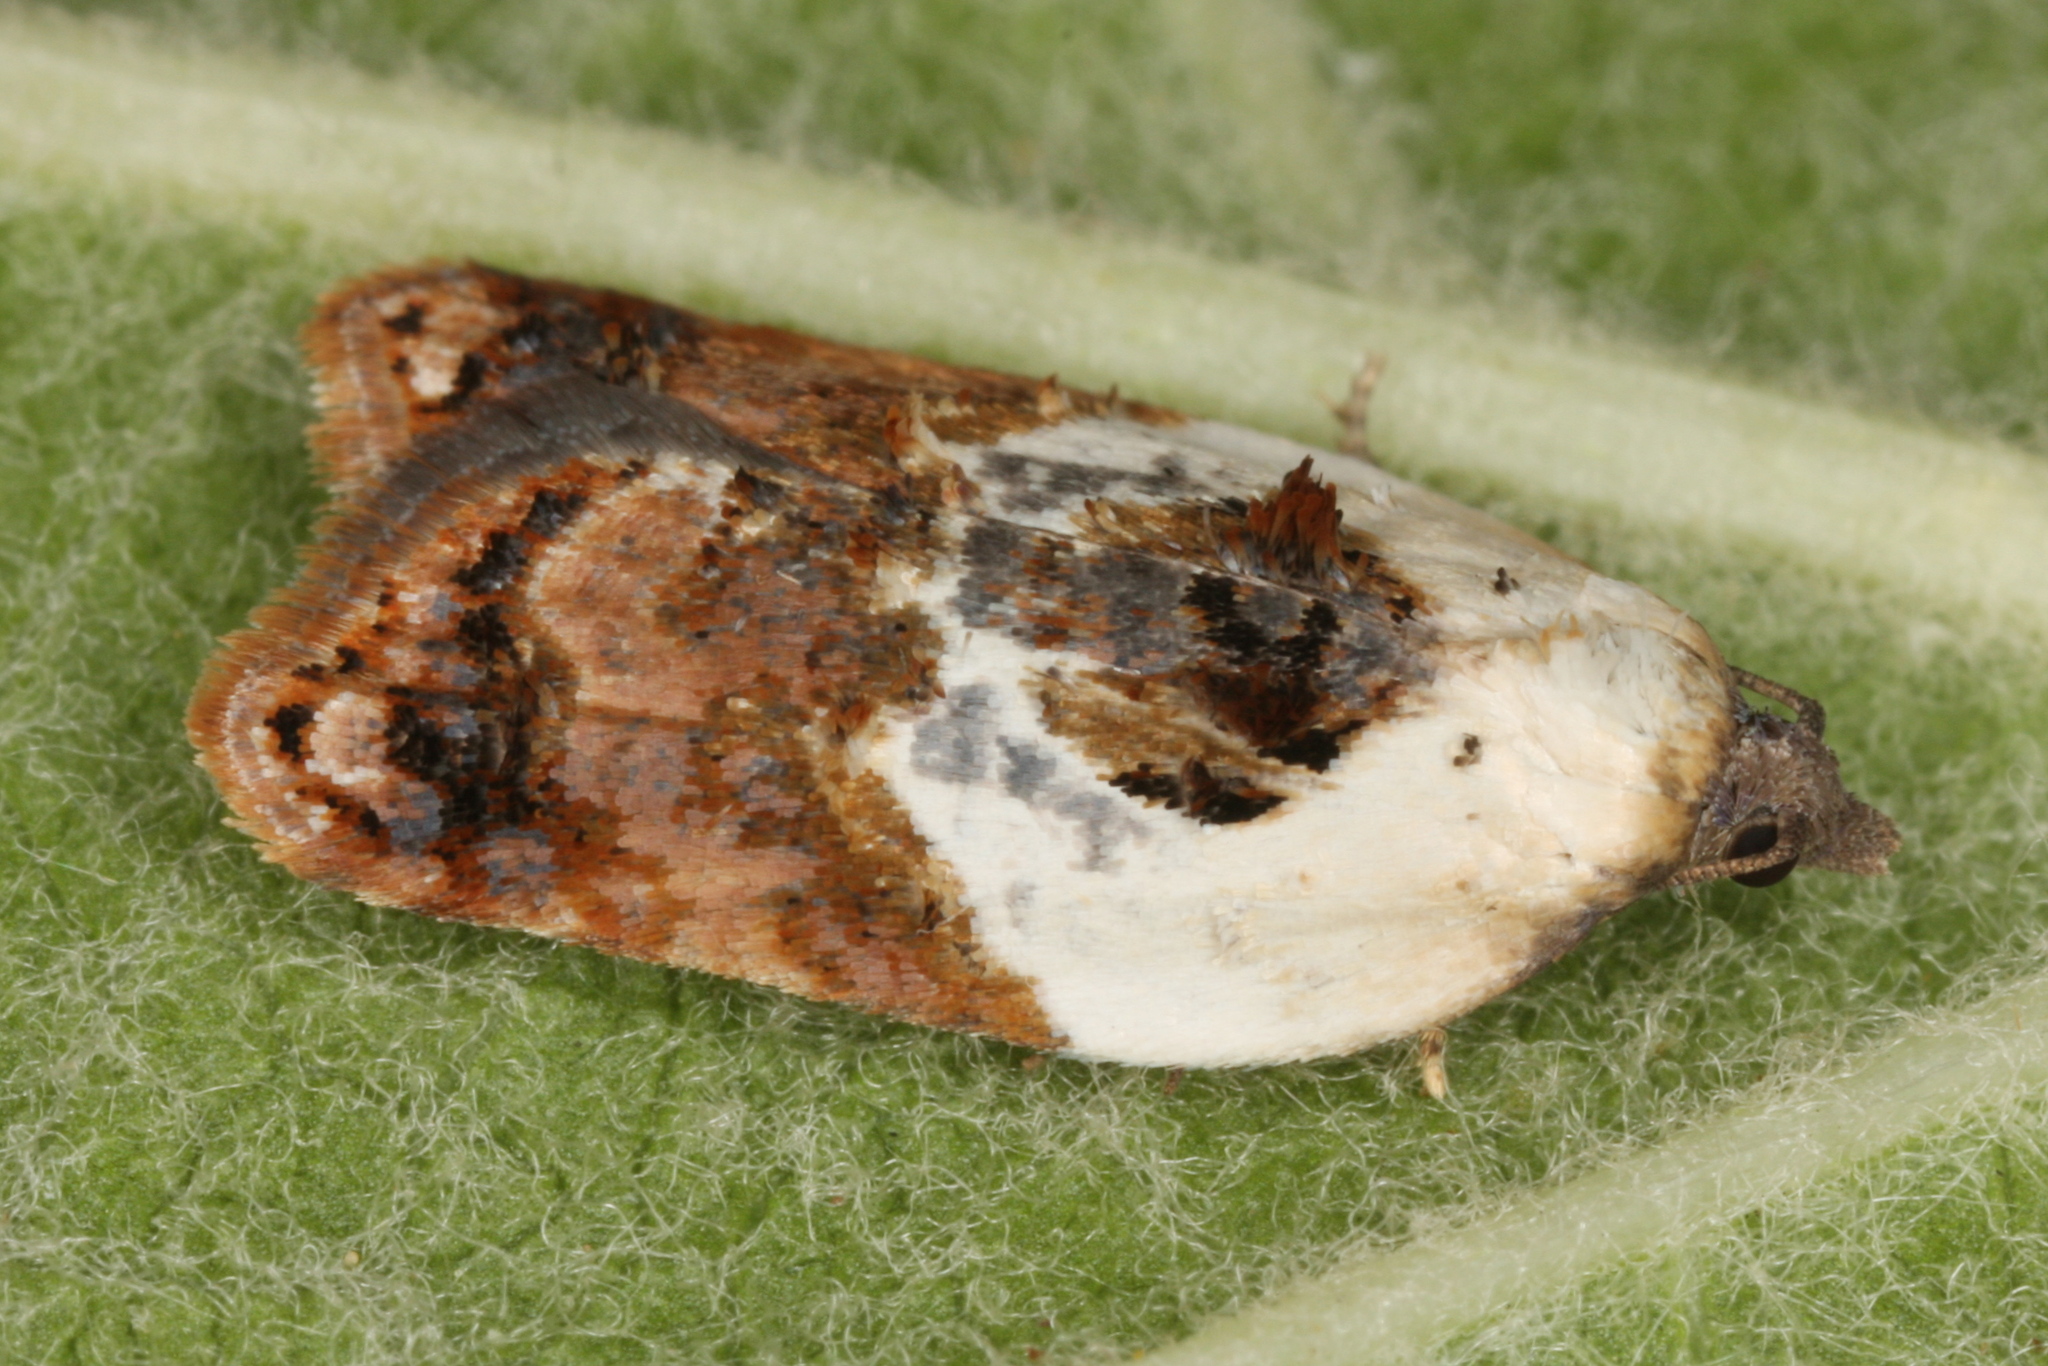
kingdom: Animalia
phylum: Arthropoda
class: Insecta
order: Lepidoptera
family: Tortricidae
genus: Acleris
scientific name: Acleris variegana
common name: Garden rose tortrix
